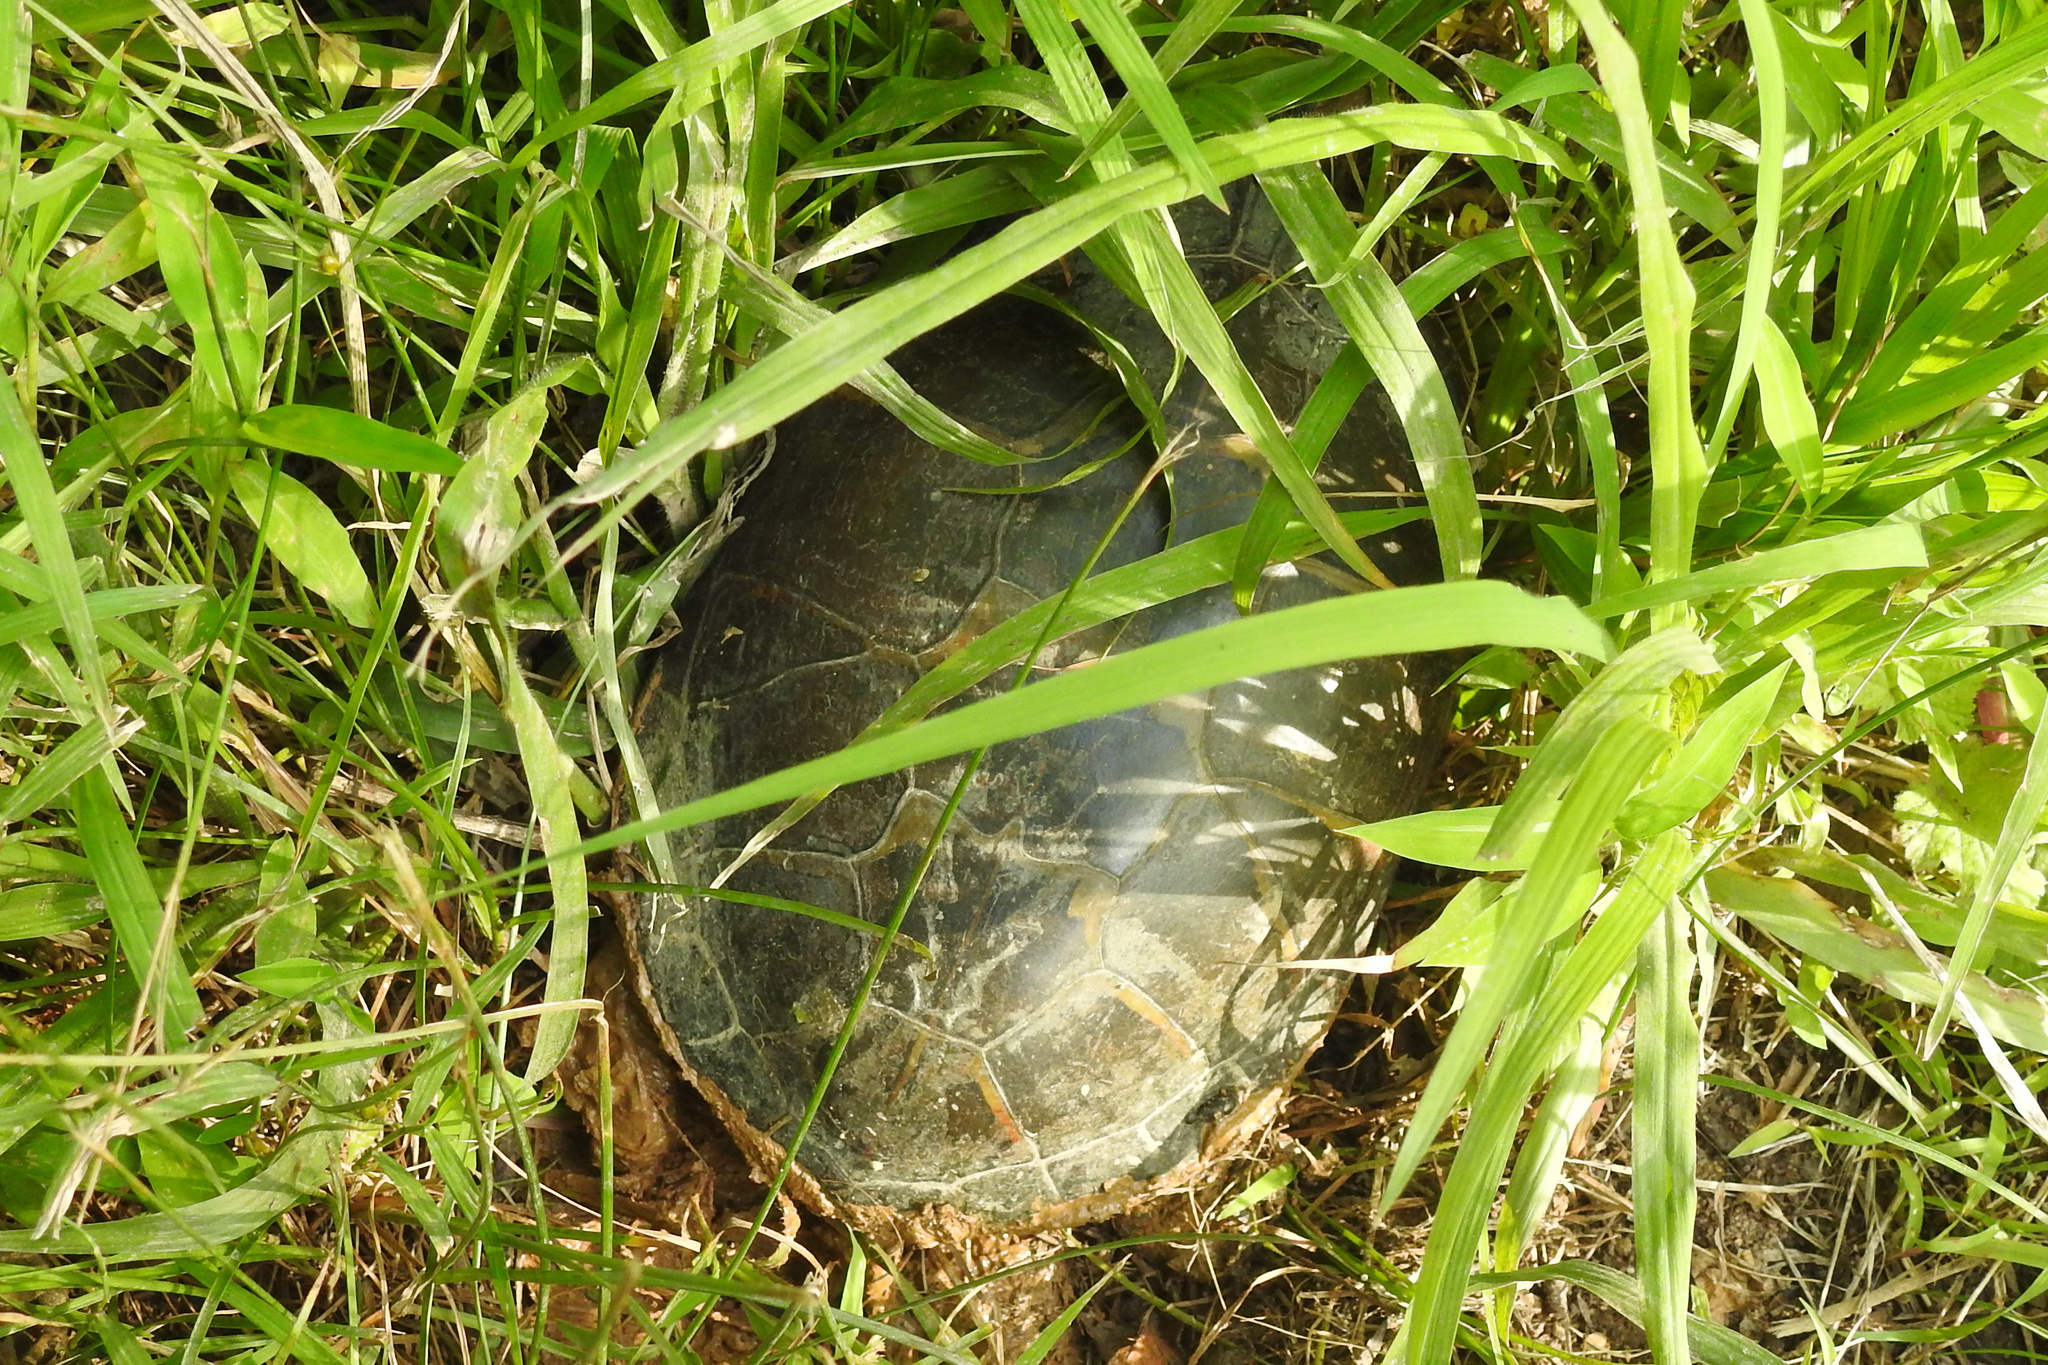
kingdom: Animalia
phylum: Chordata
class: Testudines
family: Emydidae
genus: Chrysemys
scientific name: Chrysemys picta
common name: Painted turtle
